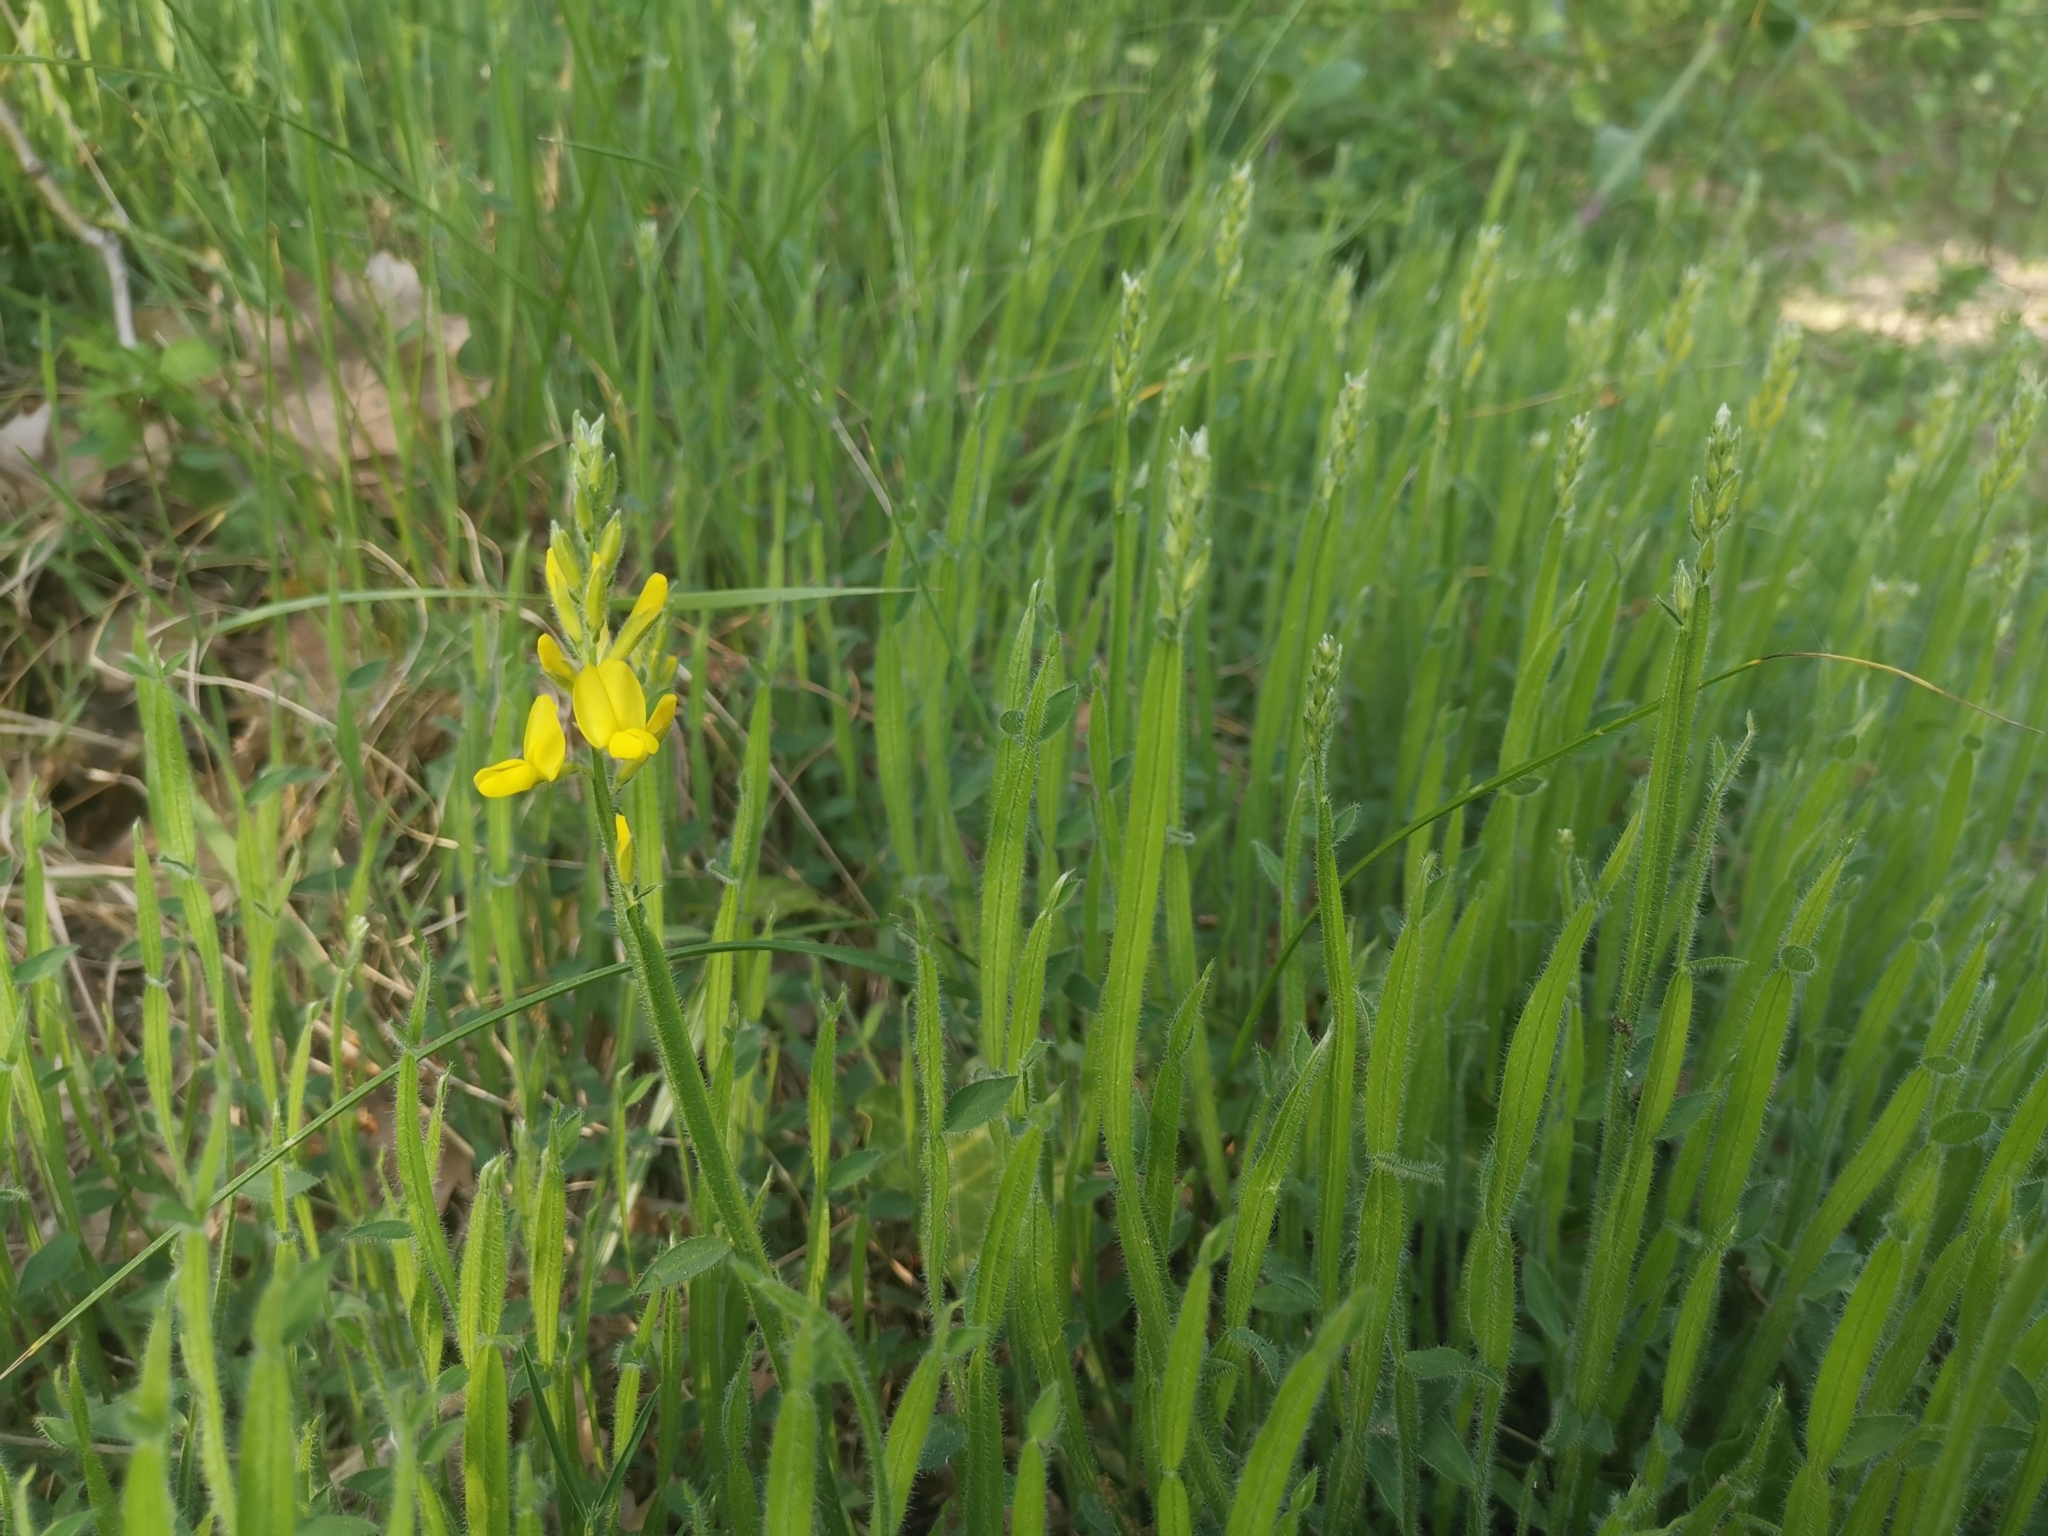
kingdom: Plantae
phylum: Tracheophyta
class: Magnoliopsida
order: Fabales
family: Fabaceae
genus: Genista
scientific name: Genista sagittalis
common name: Winged greenweed
